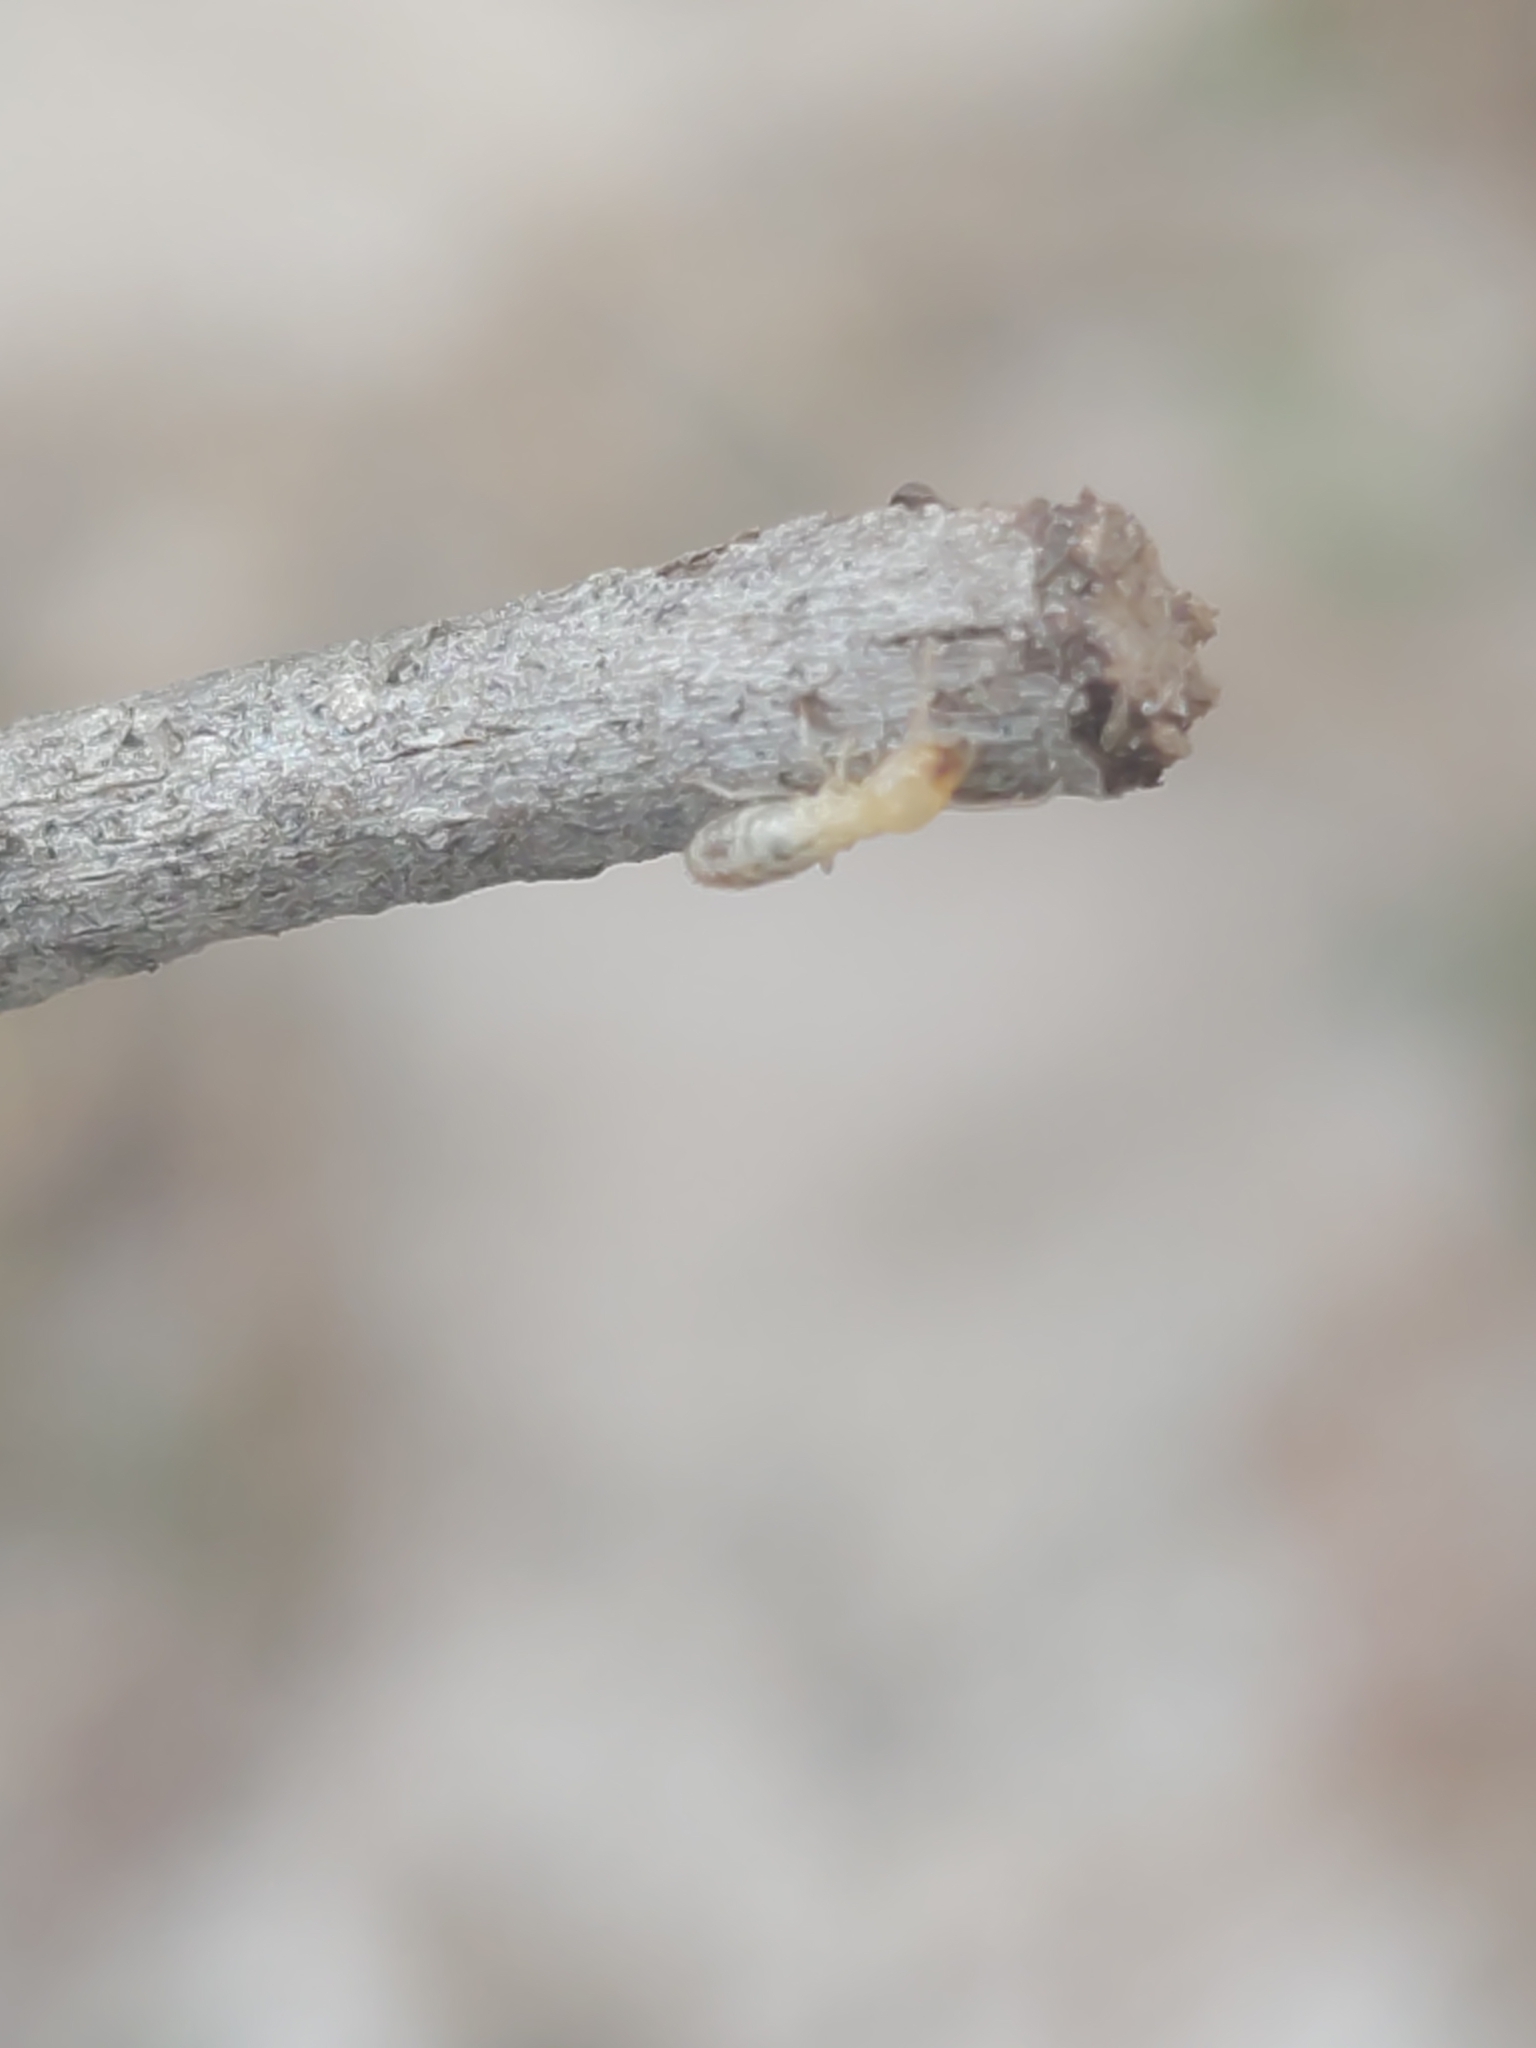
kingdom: Animalia
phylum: Arthropoda
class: Insecta
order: Blattodea
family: Rhinotermitidae
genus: Reticulitermes
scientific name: Reticulitermes flavipes
